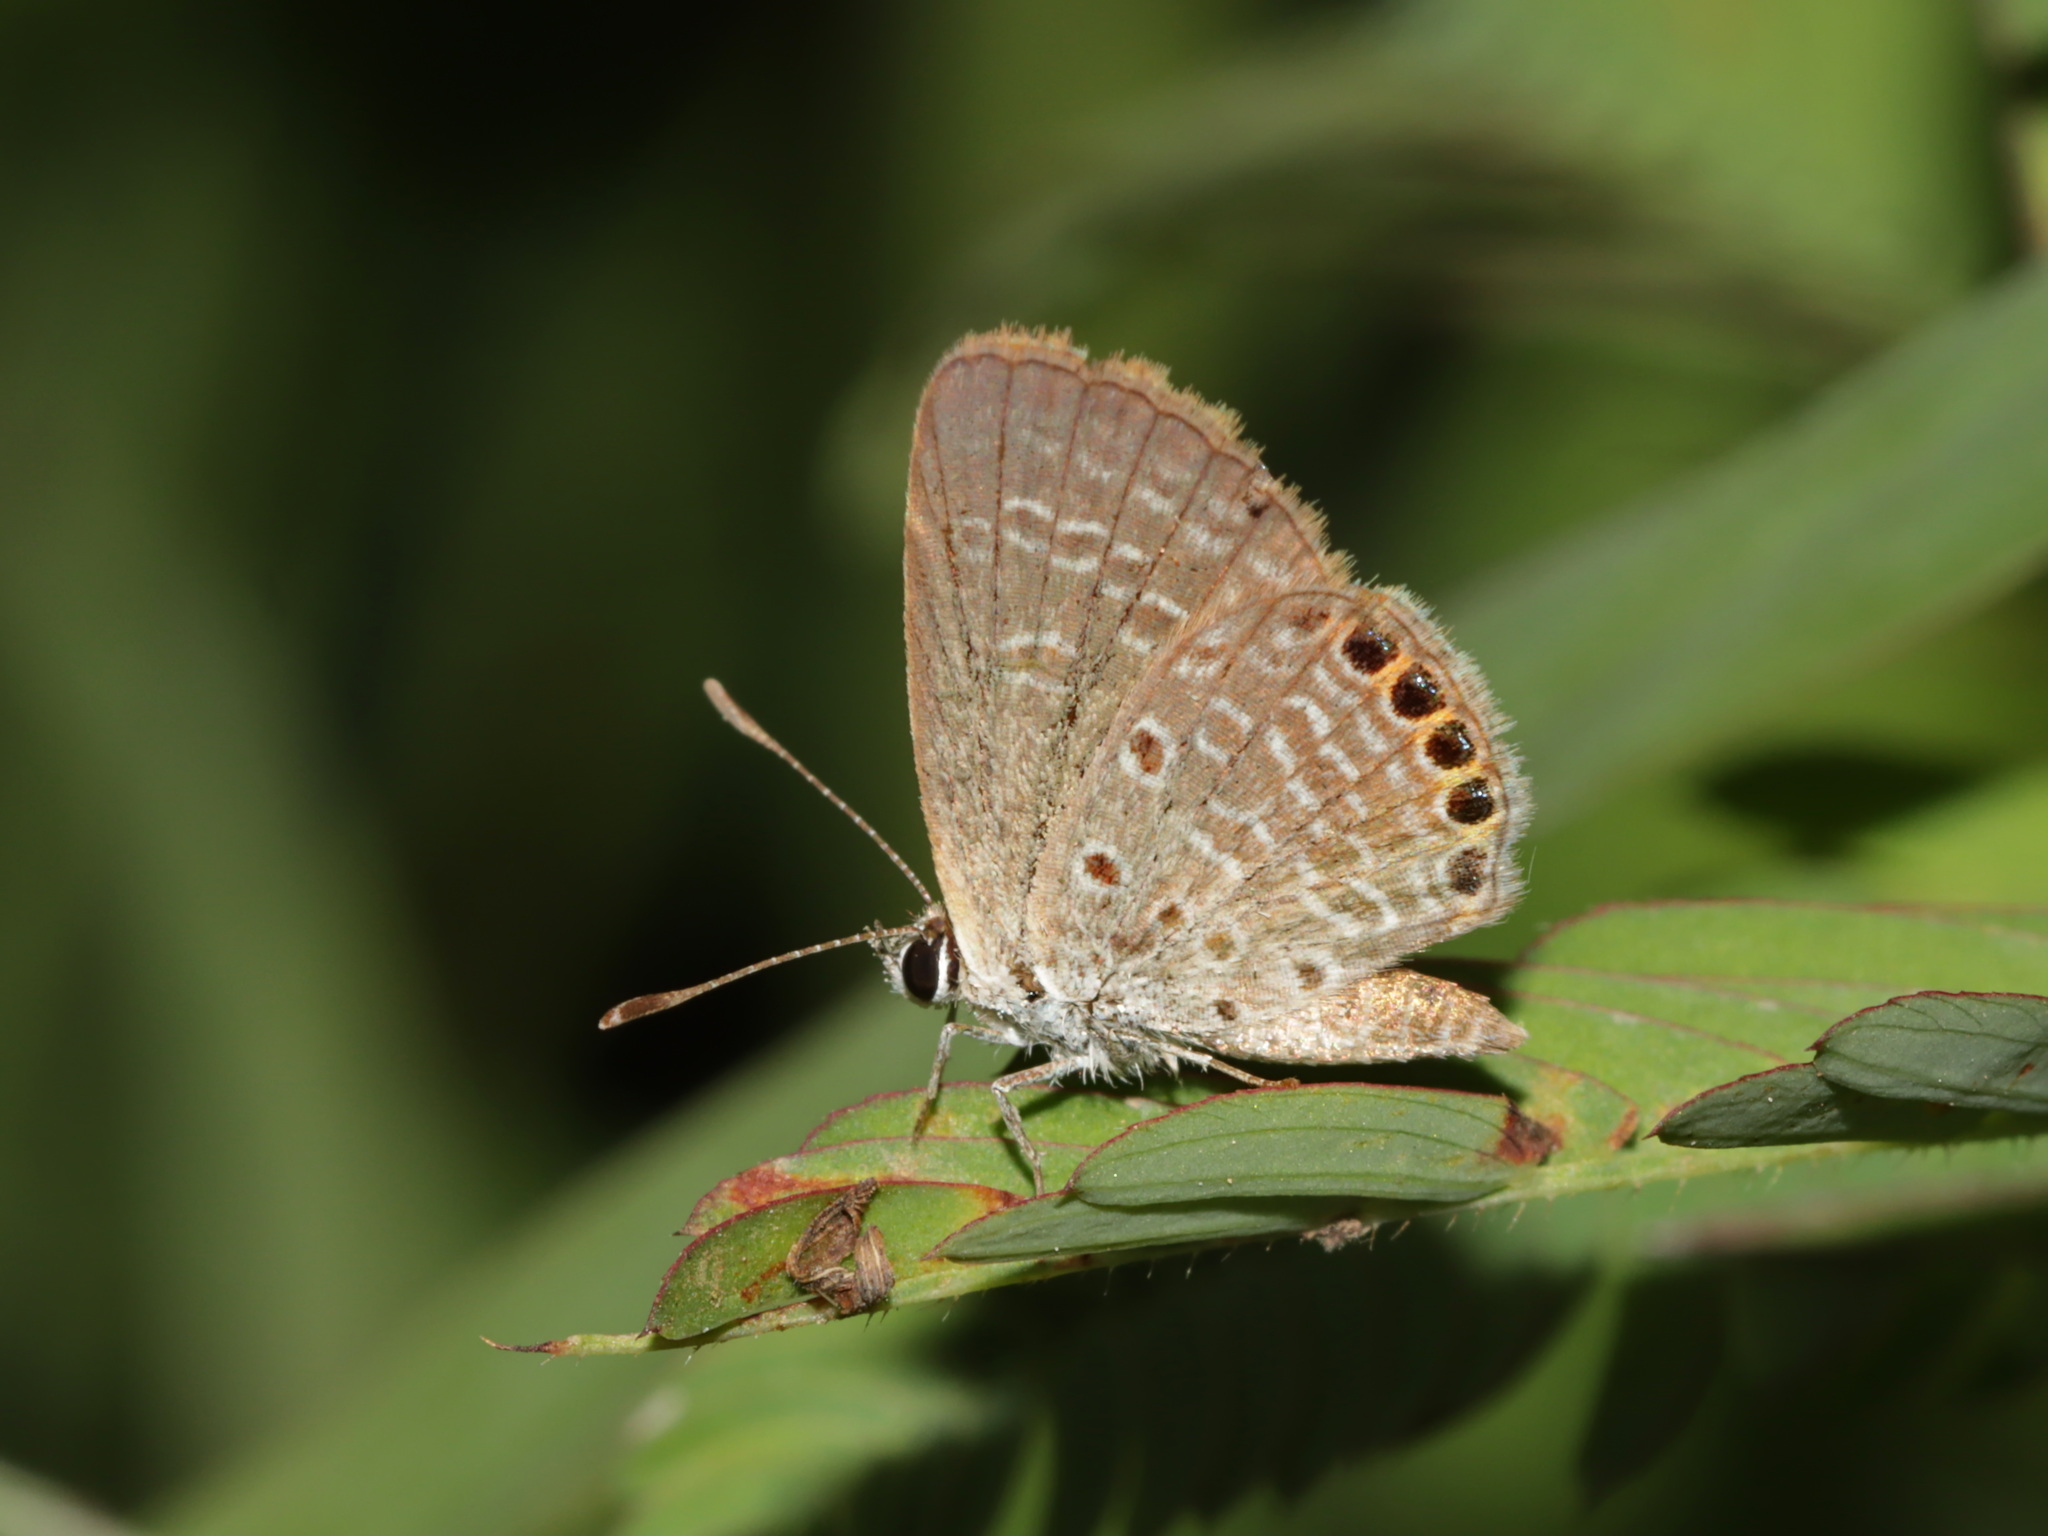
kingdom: Animalia
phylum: Arthropoda
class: Insecta
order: Lepidoptera
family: Lycaenidae
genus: Freyeria
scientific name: Freyeria putli
